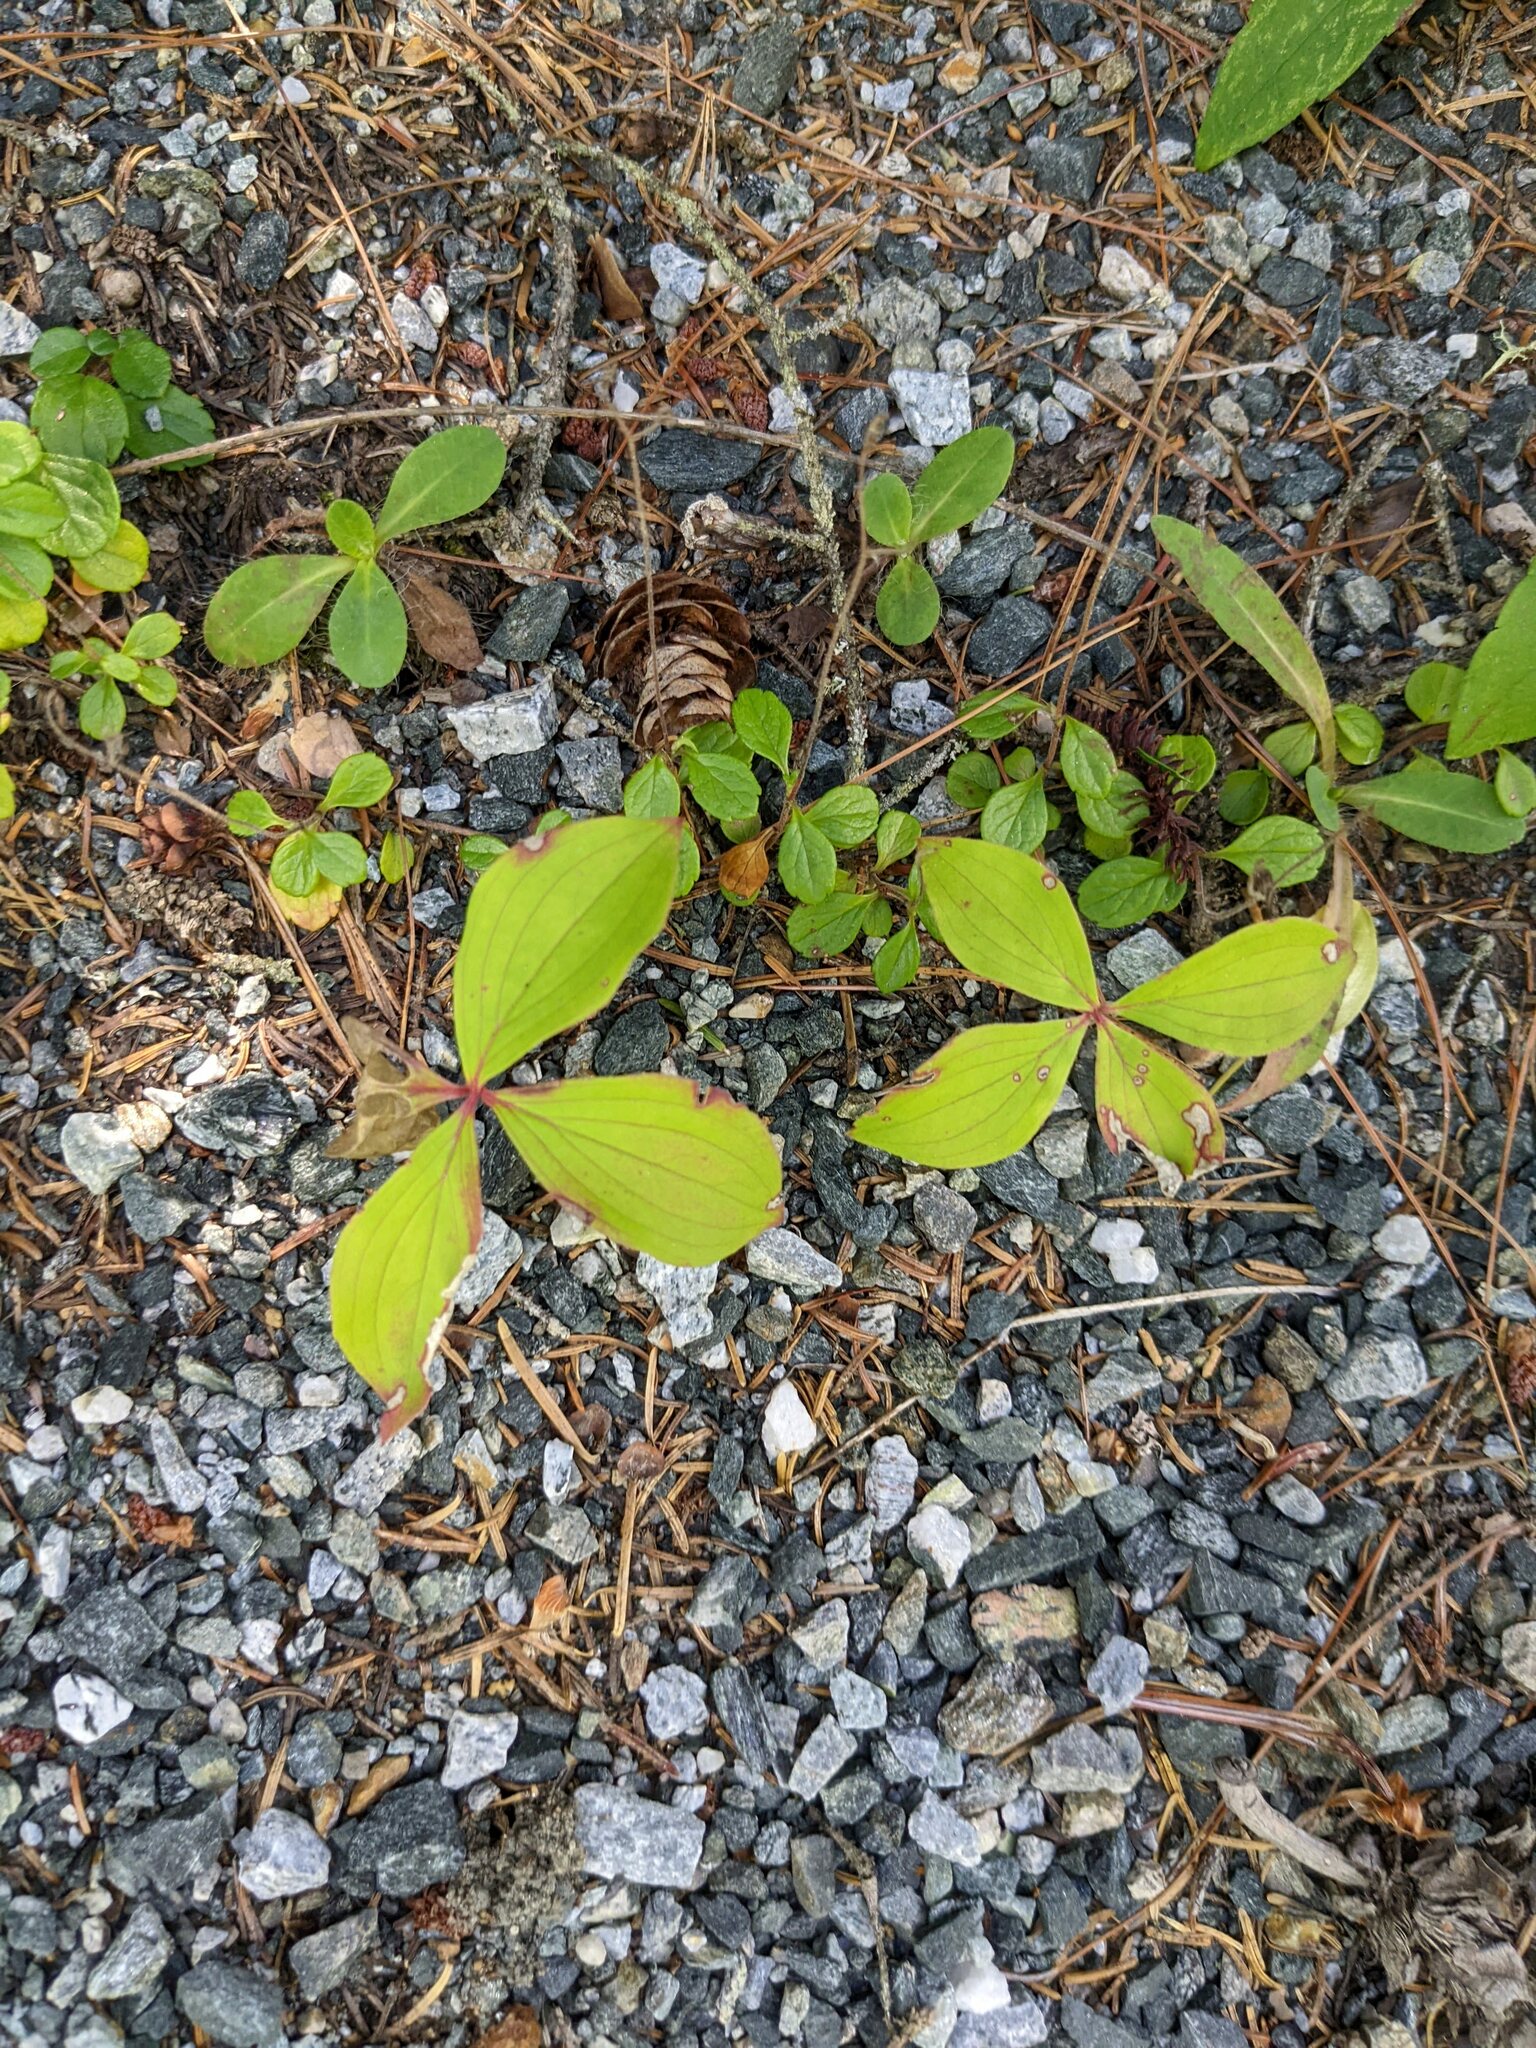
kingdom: Plantae
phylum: Tracheophyta
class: Magnoliopsida
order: Cornales
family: Cornaceae
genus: Cornus
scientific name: Cornus canadensis
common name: Creeping dogwood
